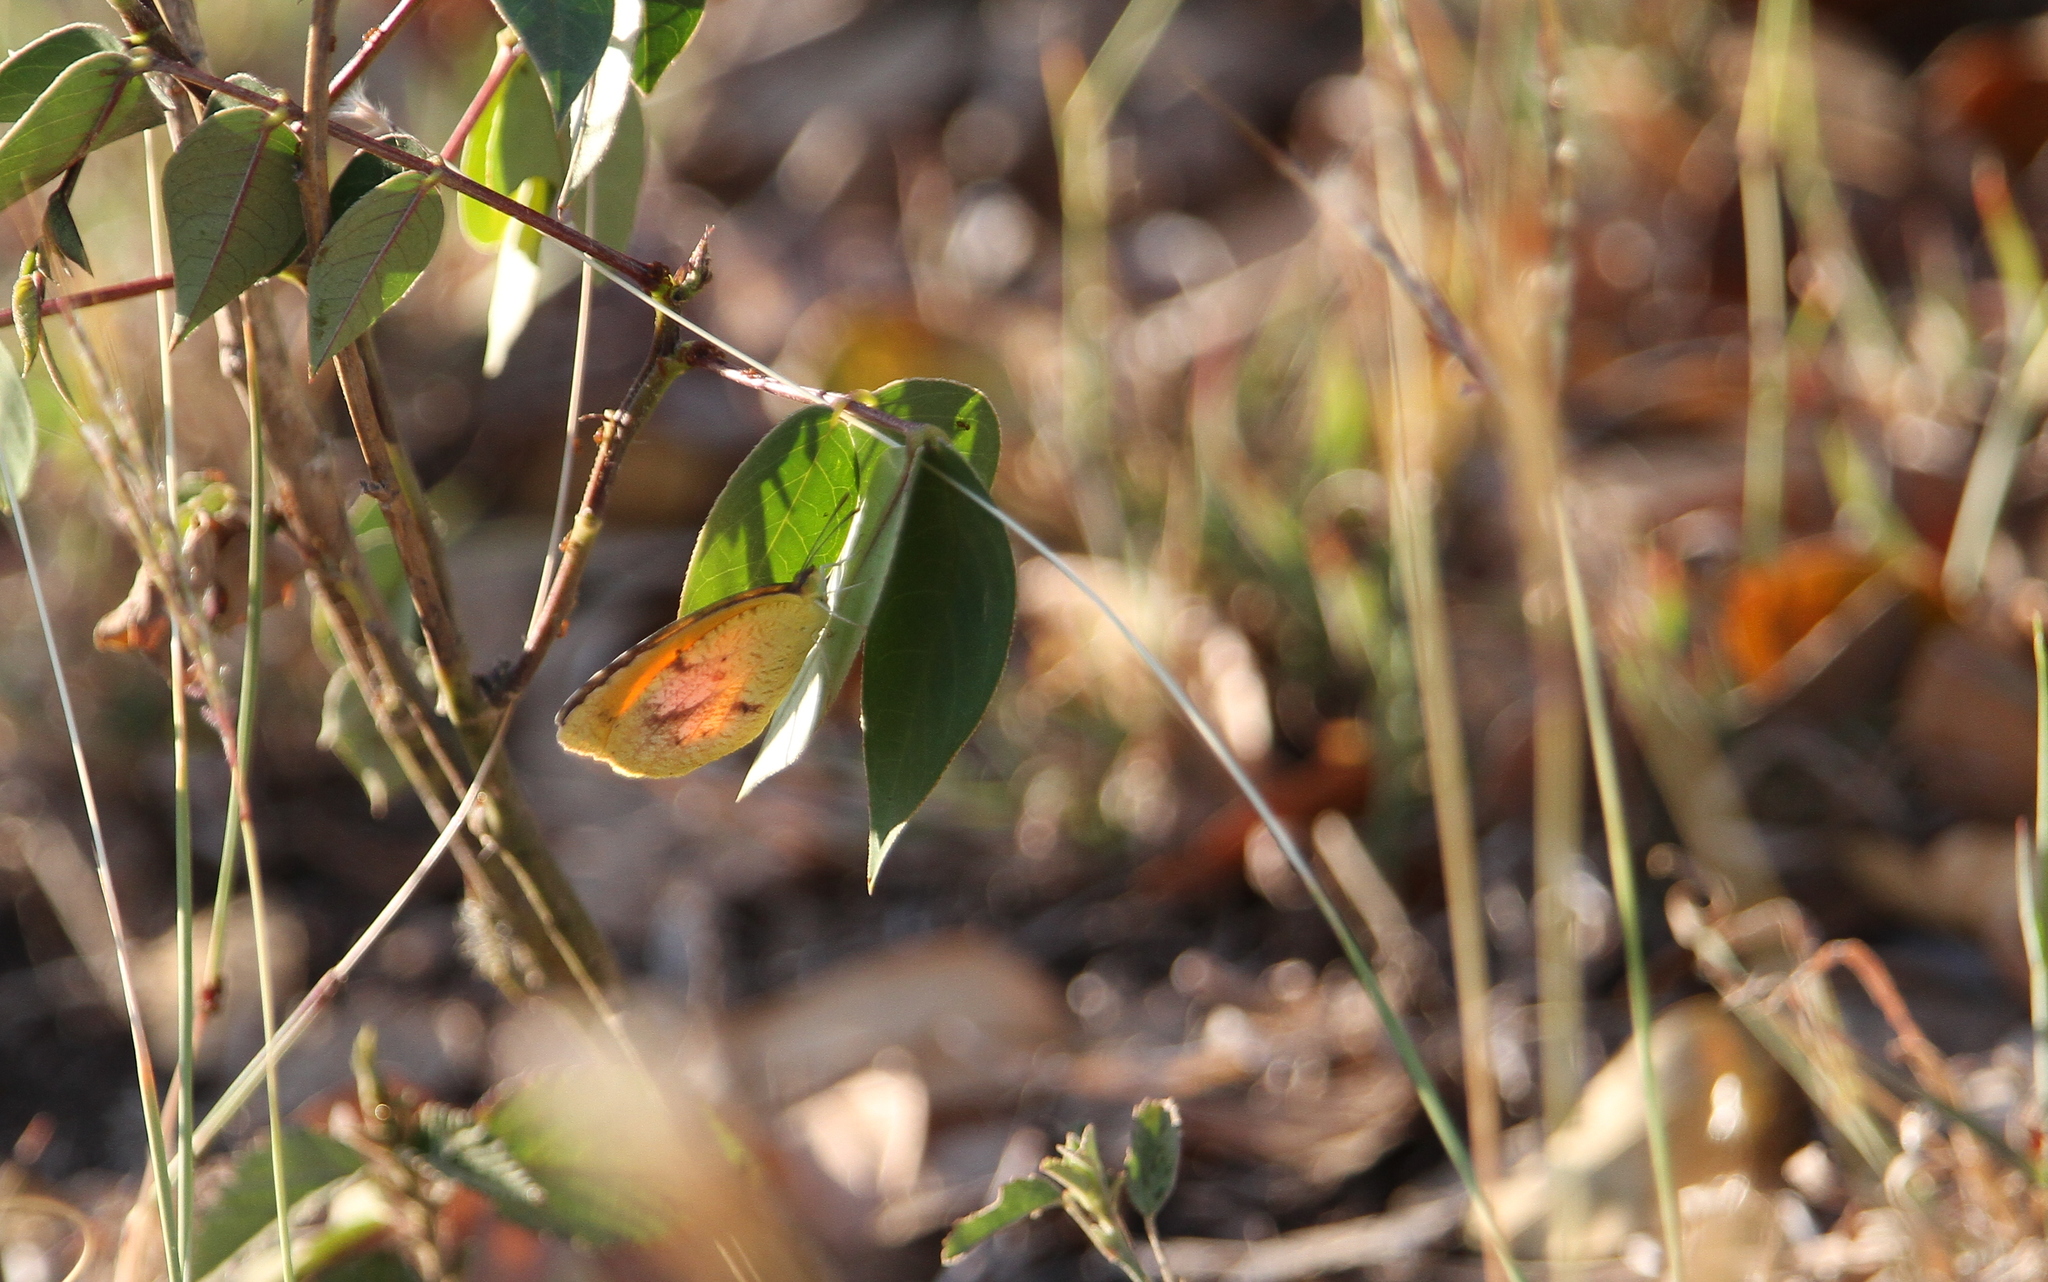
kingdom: Animalia
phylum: Arthropoda
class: Insecta
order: Lepidoptera
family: Pieridae
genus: Abaeis
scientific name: Abaeis nicippe
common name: Sleepy orange
